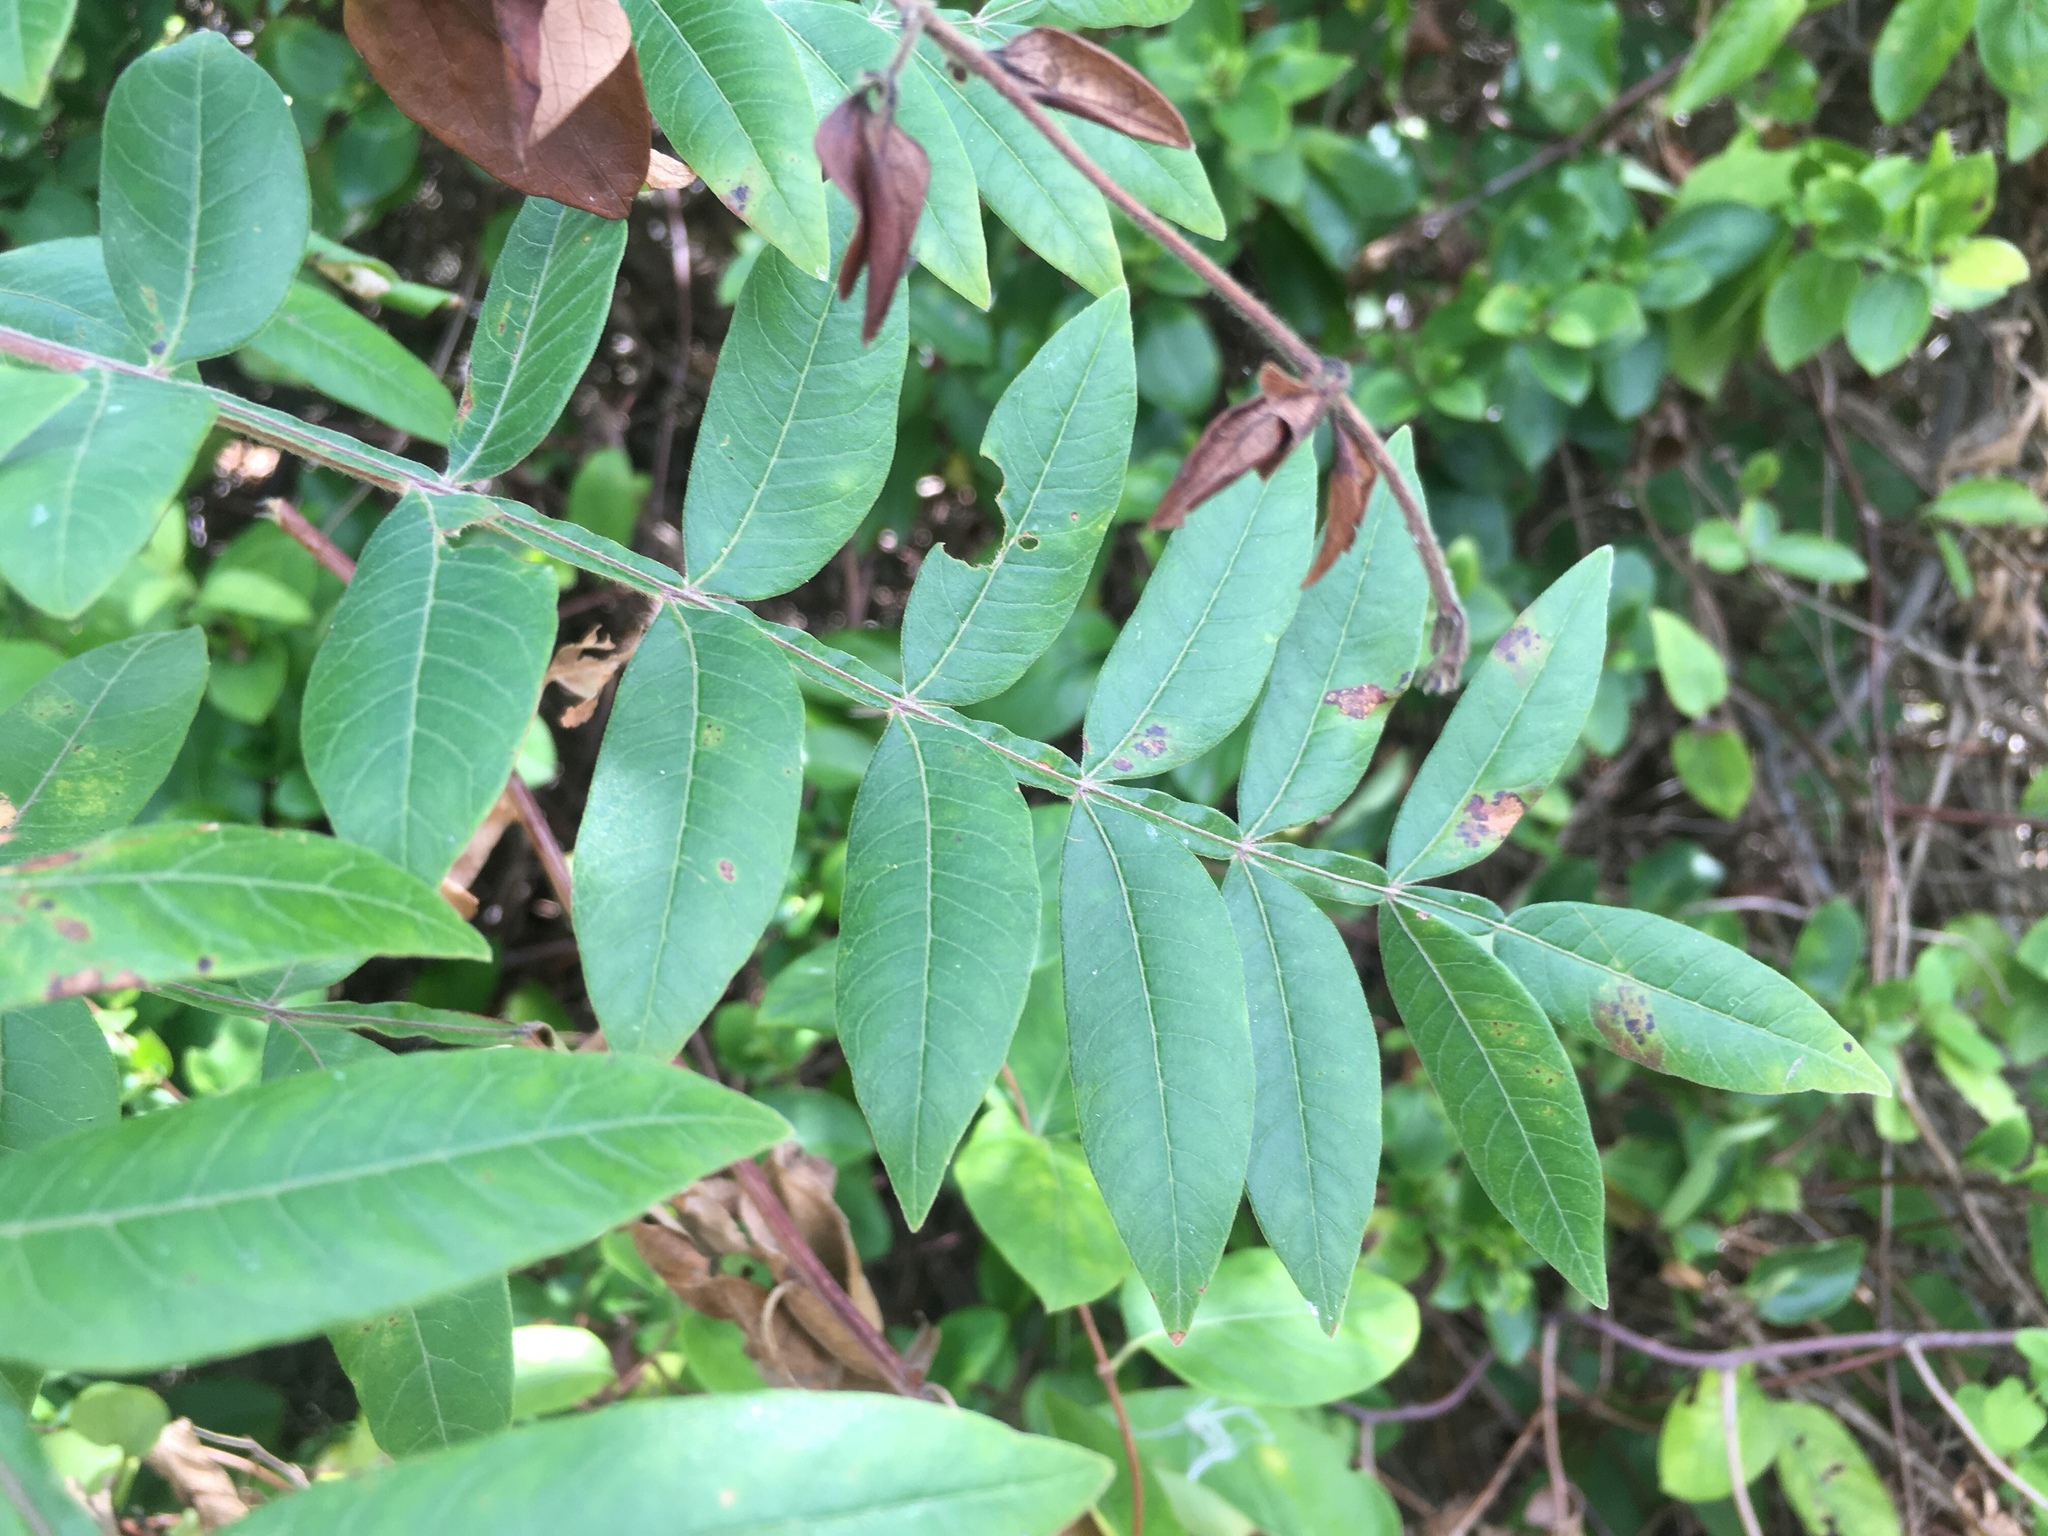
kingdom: Plantae
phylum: Tracheophyta
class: Magnoliopsida
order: Sapindales
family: Anacardiaceae
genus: Rhus
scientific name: Rhus copallina
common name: Shining sumac
